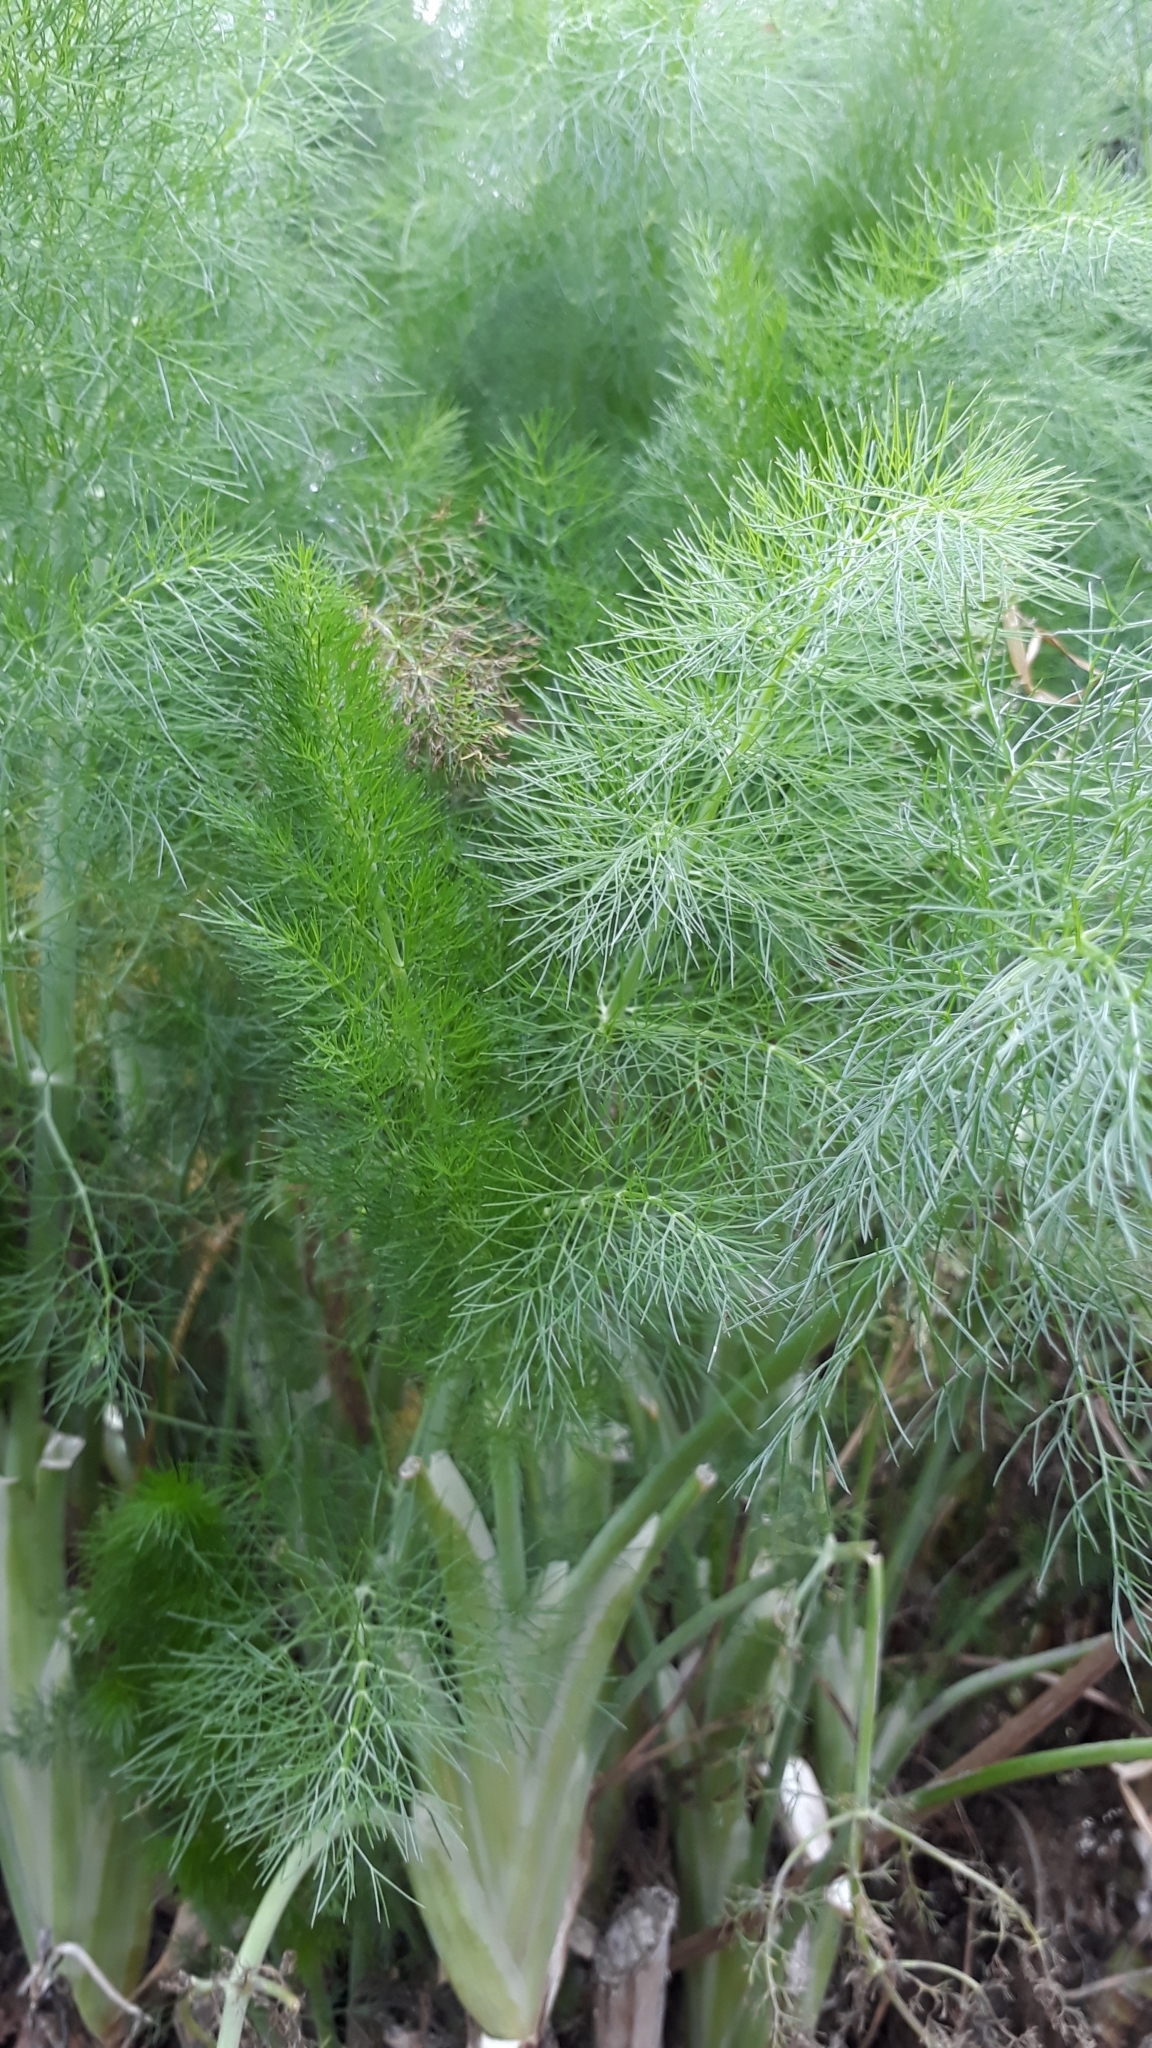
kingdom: Plantae
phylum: Tracheophyta
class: Magnoliopsida
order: Apiales
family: Apiaceae
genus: Foeniculum
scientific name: Foeniculum vulgare
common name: Fennel
